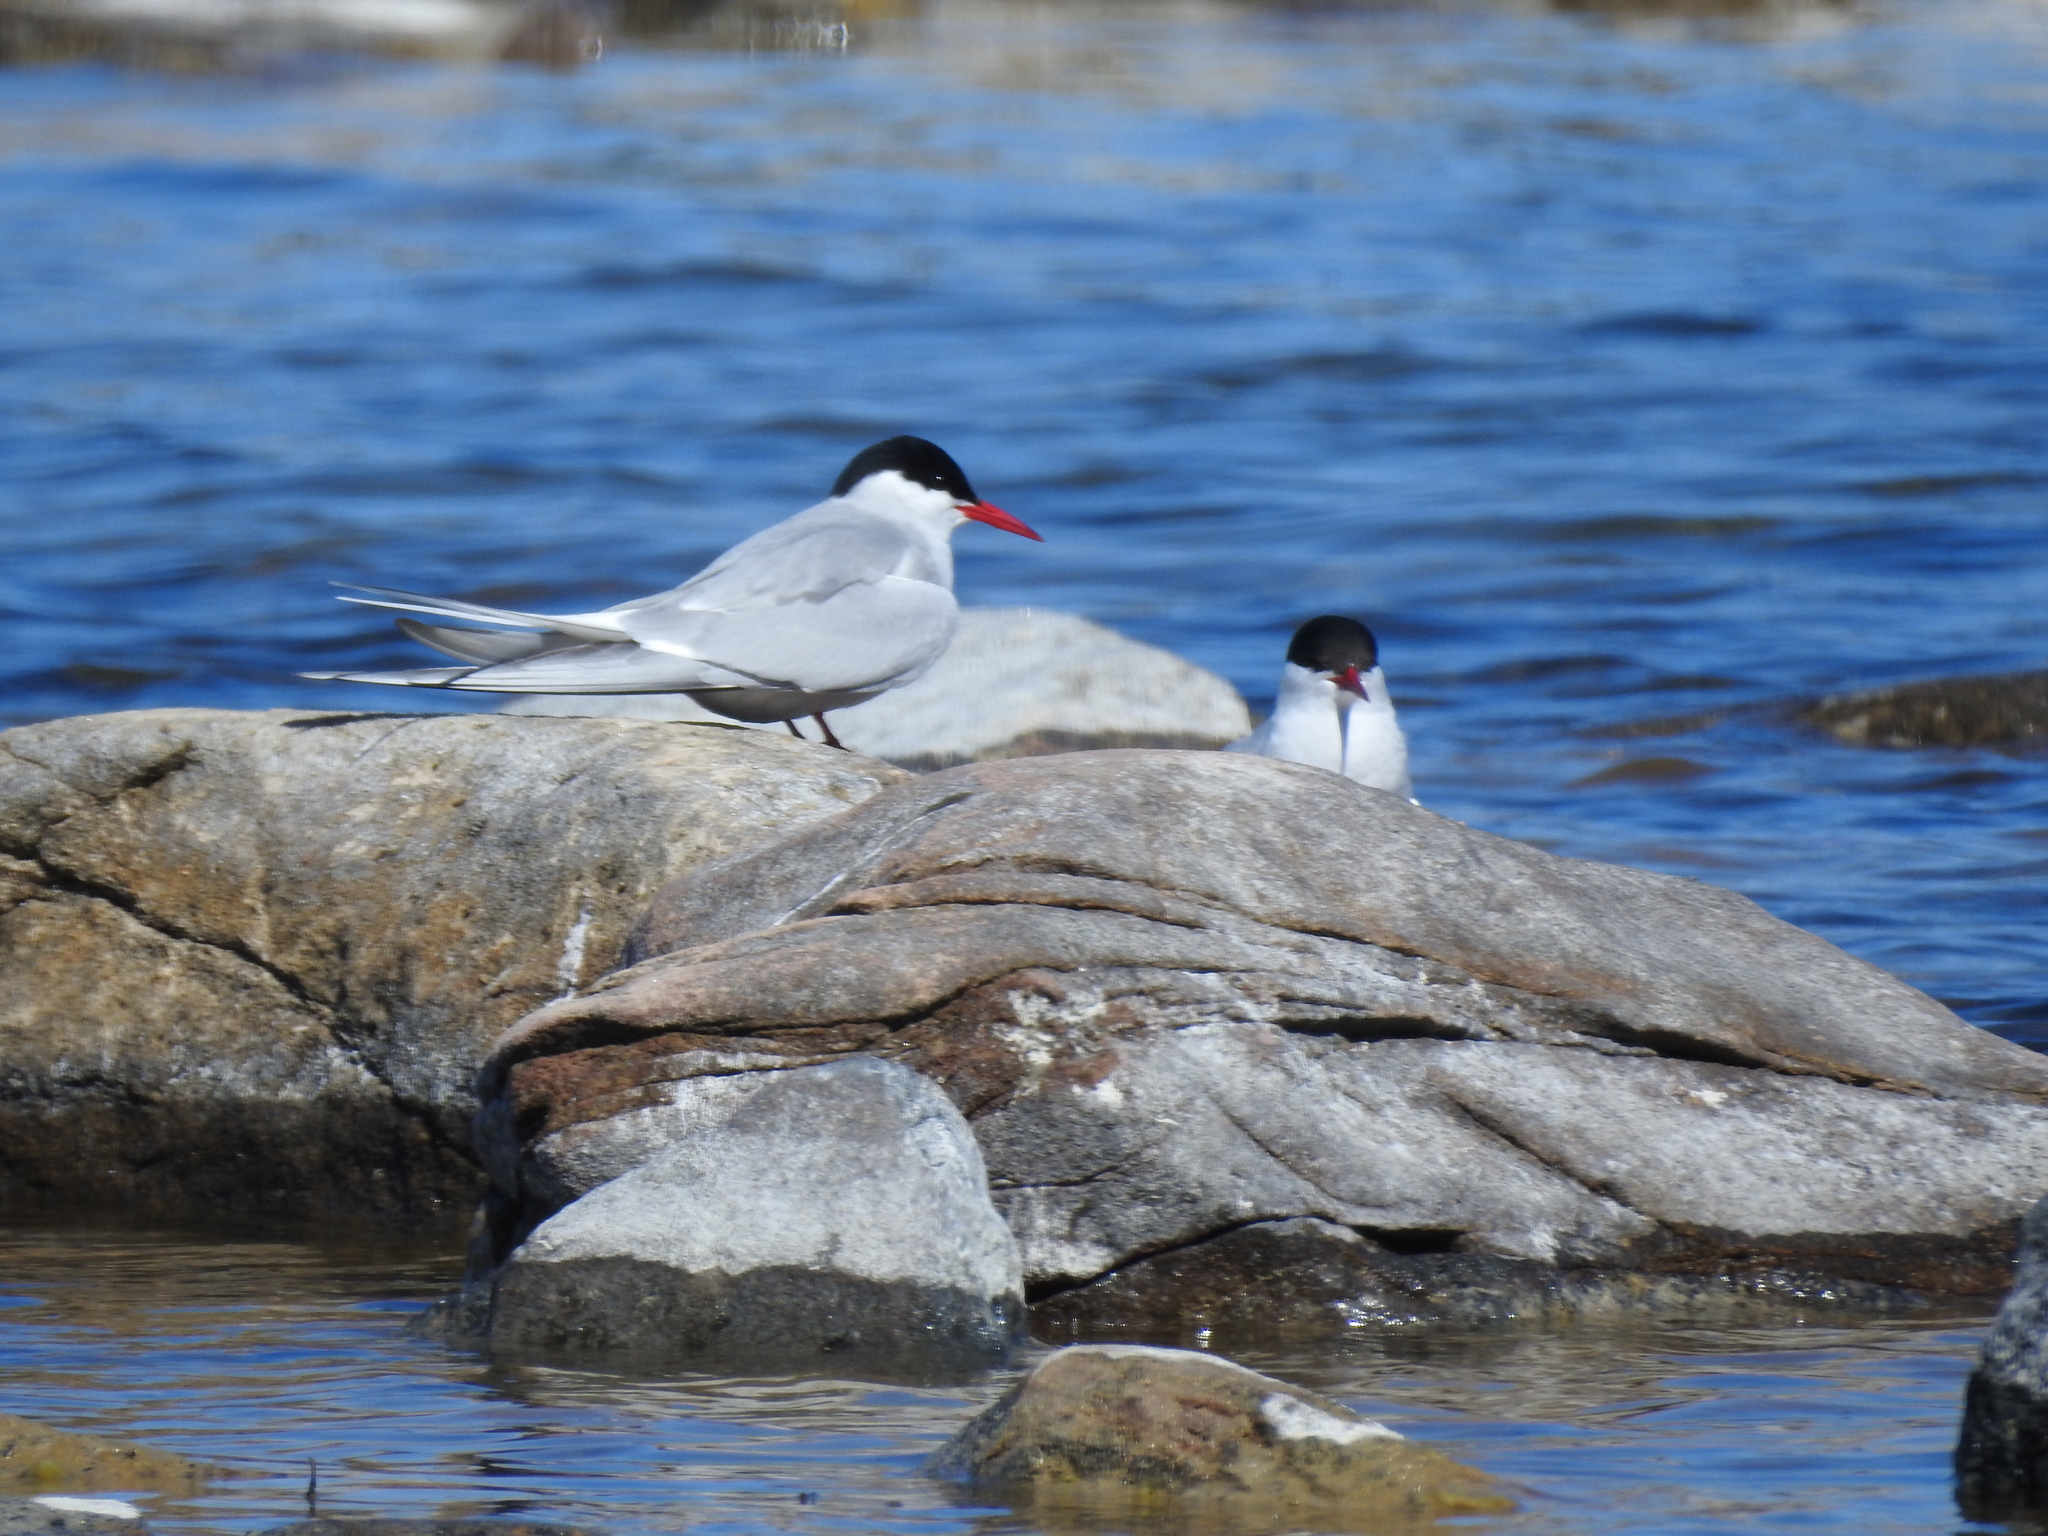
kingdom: Animalia
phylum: Chordata
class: Aves
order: Charadriiformes
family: Laridae
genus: Sterna
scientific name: Sterna paradisaea
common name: Arctic tern
